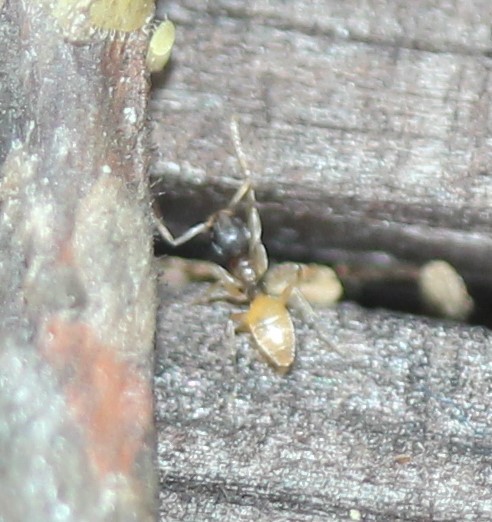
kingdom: Animalia
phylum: Arthropoda
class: Insecta
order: Hymenoptera
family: Formicidae
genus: Tapinoma
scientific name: Tapinoma melanocephalum
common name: Ghost ant
